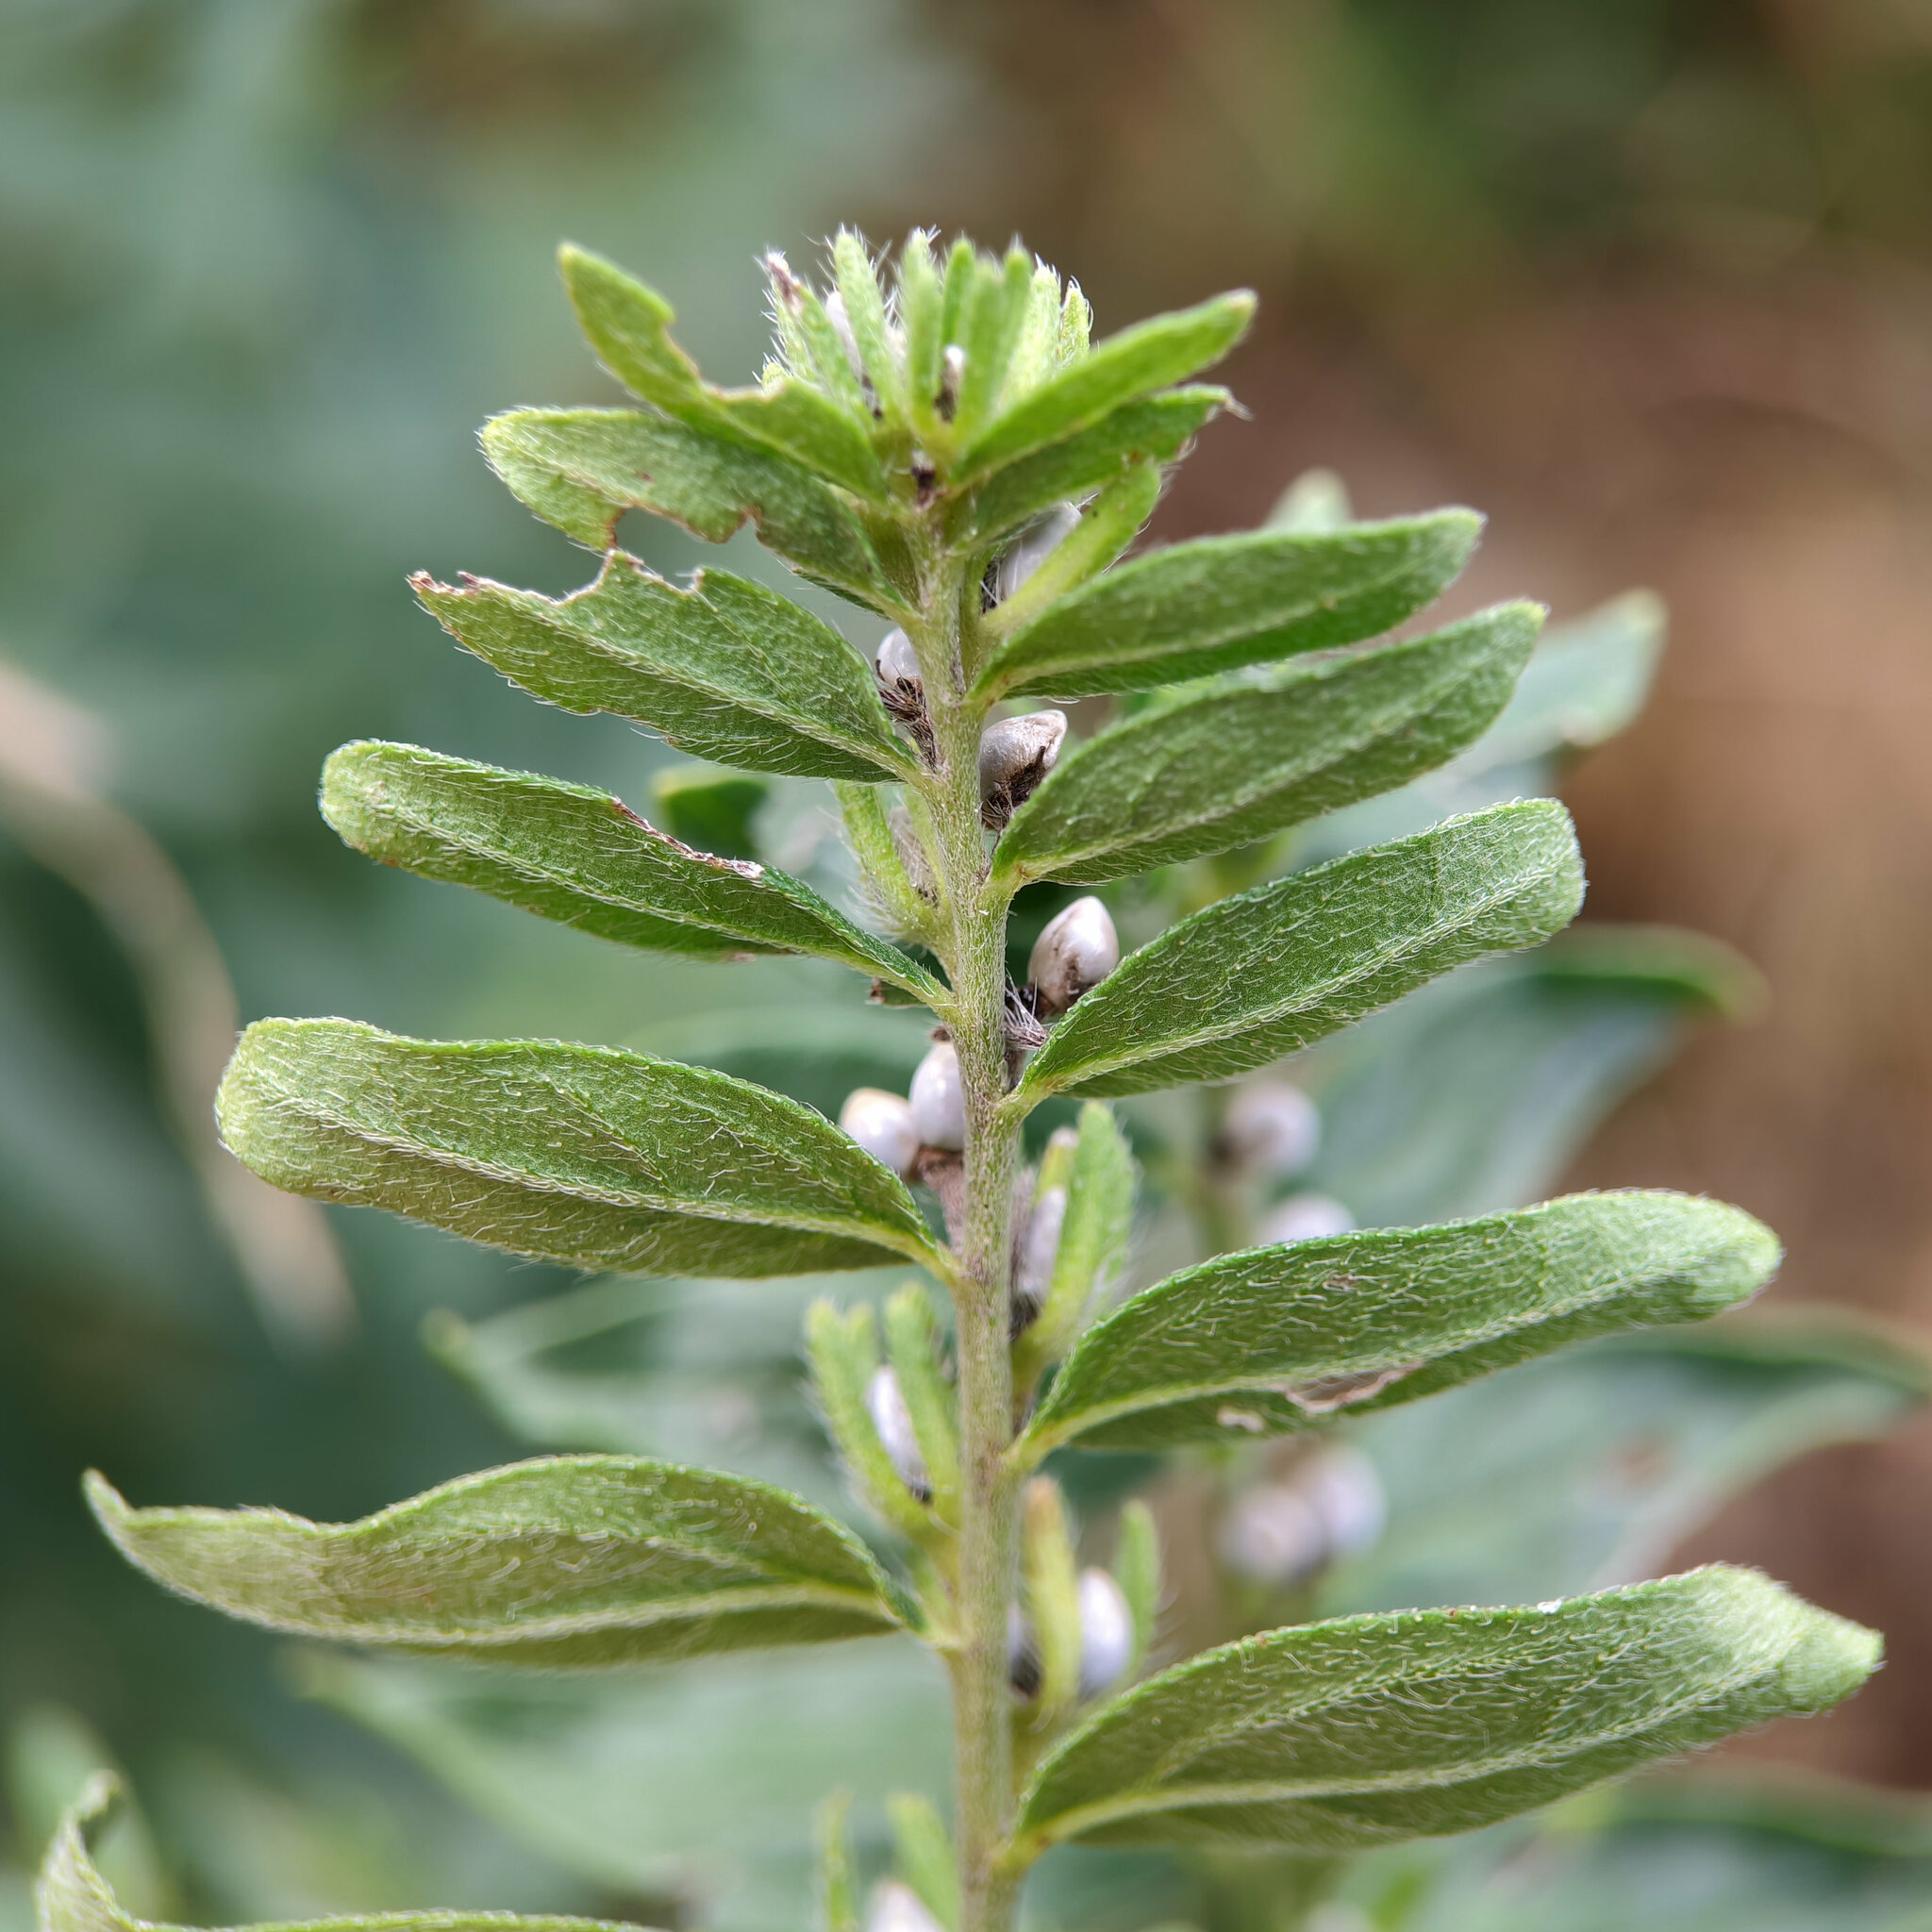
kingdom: Plantae
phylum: Tracheophyta
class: Magnoliopsida
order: Boraginales
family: Boraginaceae
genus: Lithospermum
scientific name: Lithospermum officinale
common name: Common gromwell
